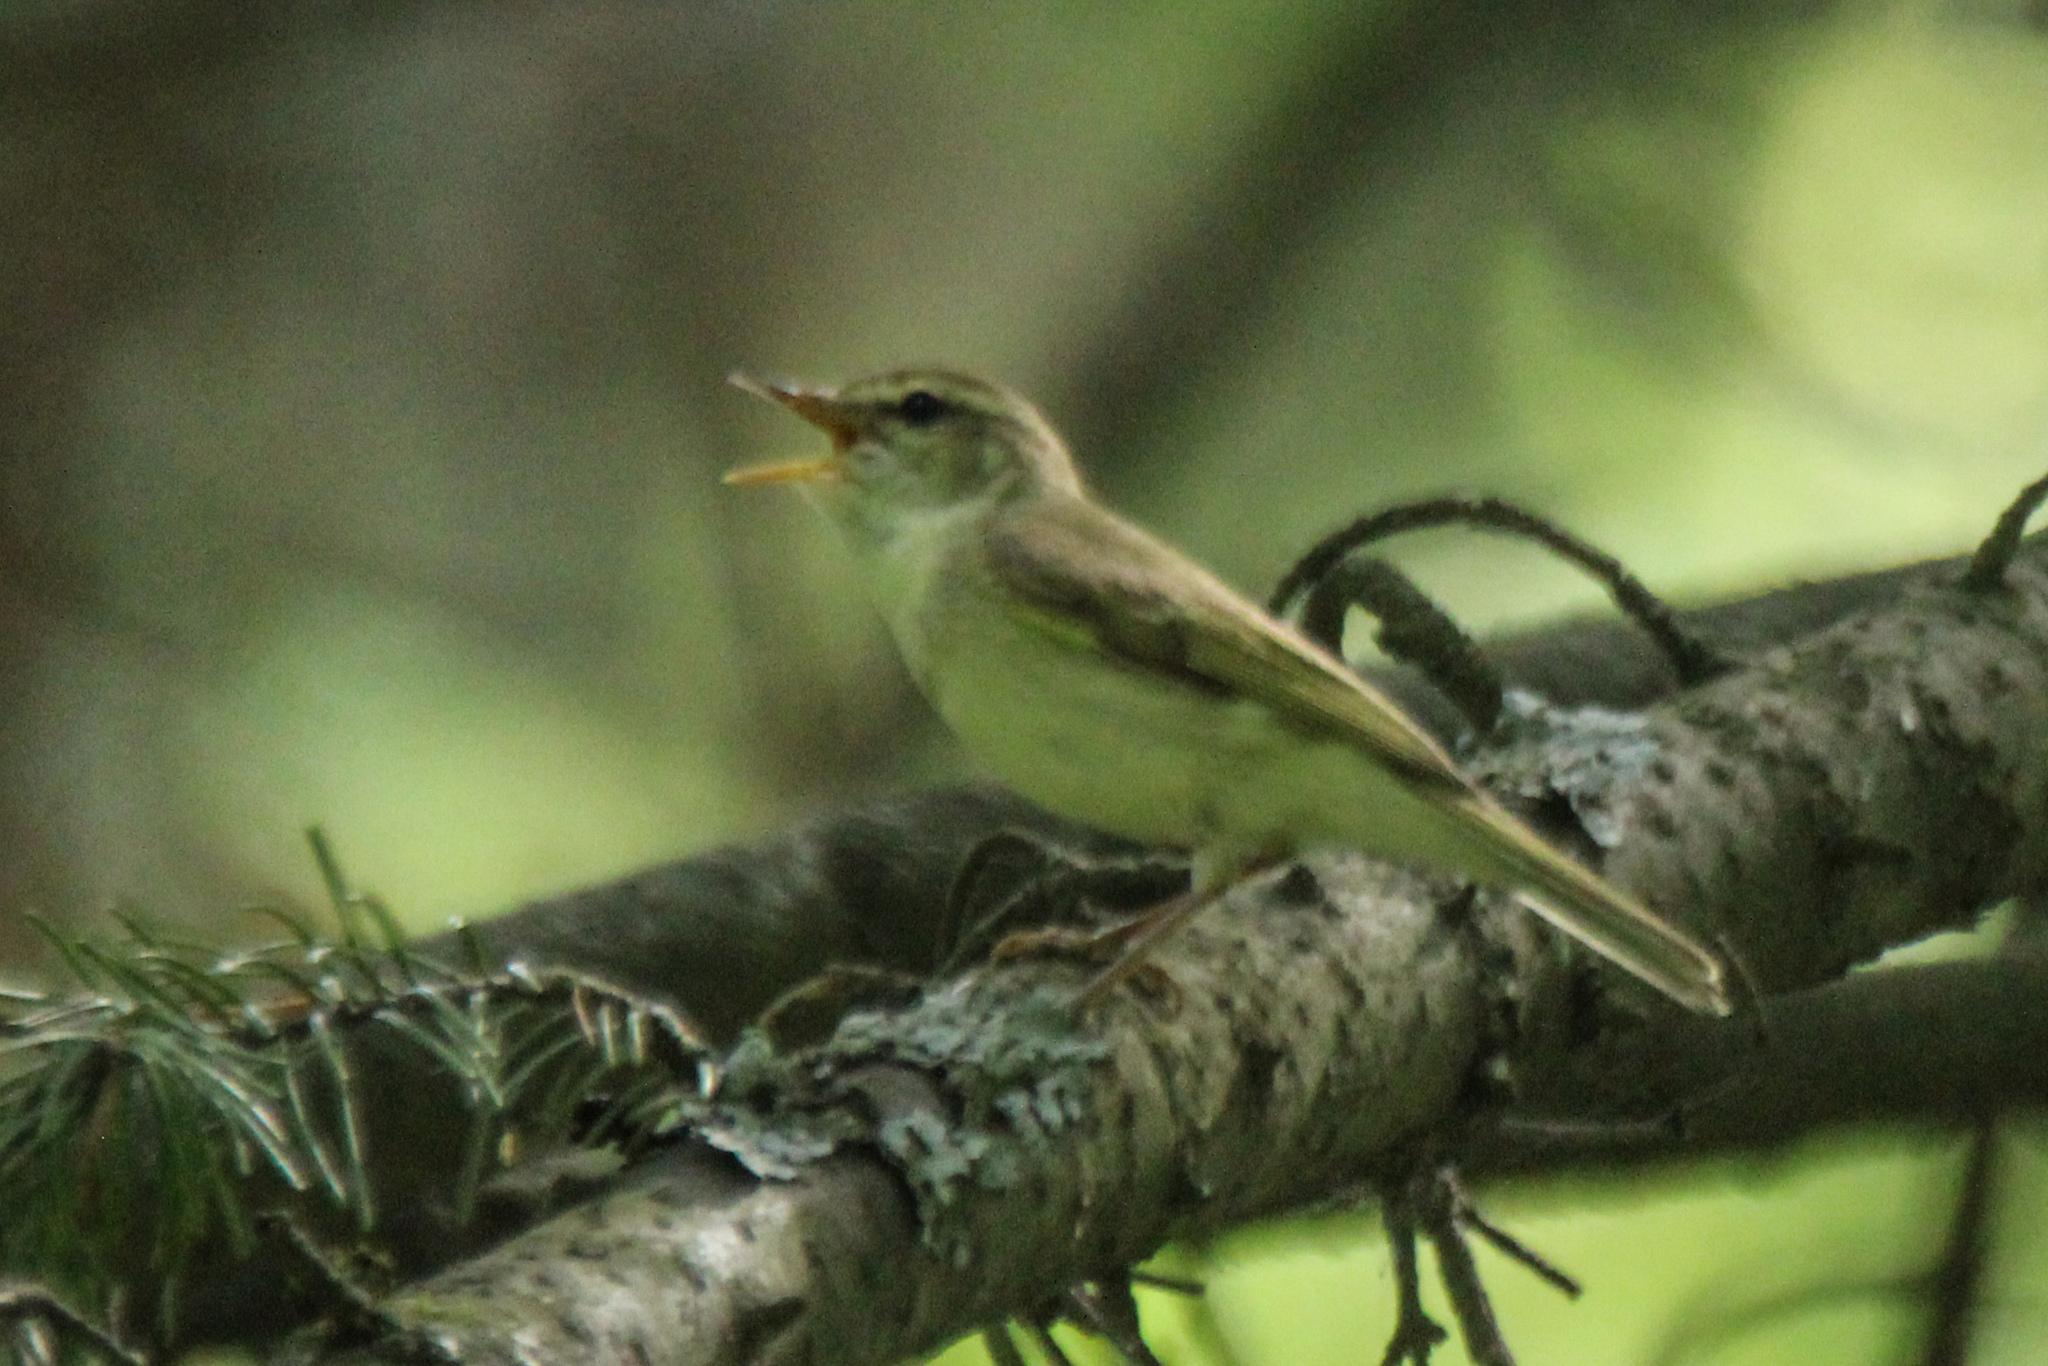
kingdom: Animalia
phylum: Chordata
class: Aves
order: Passeriformes
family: Phylloscopidae
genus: Phylloscopus
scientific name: Phylloscopus trochiloides
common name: Greenish warbler
